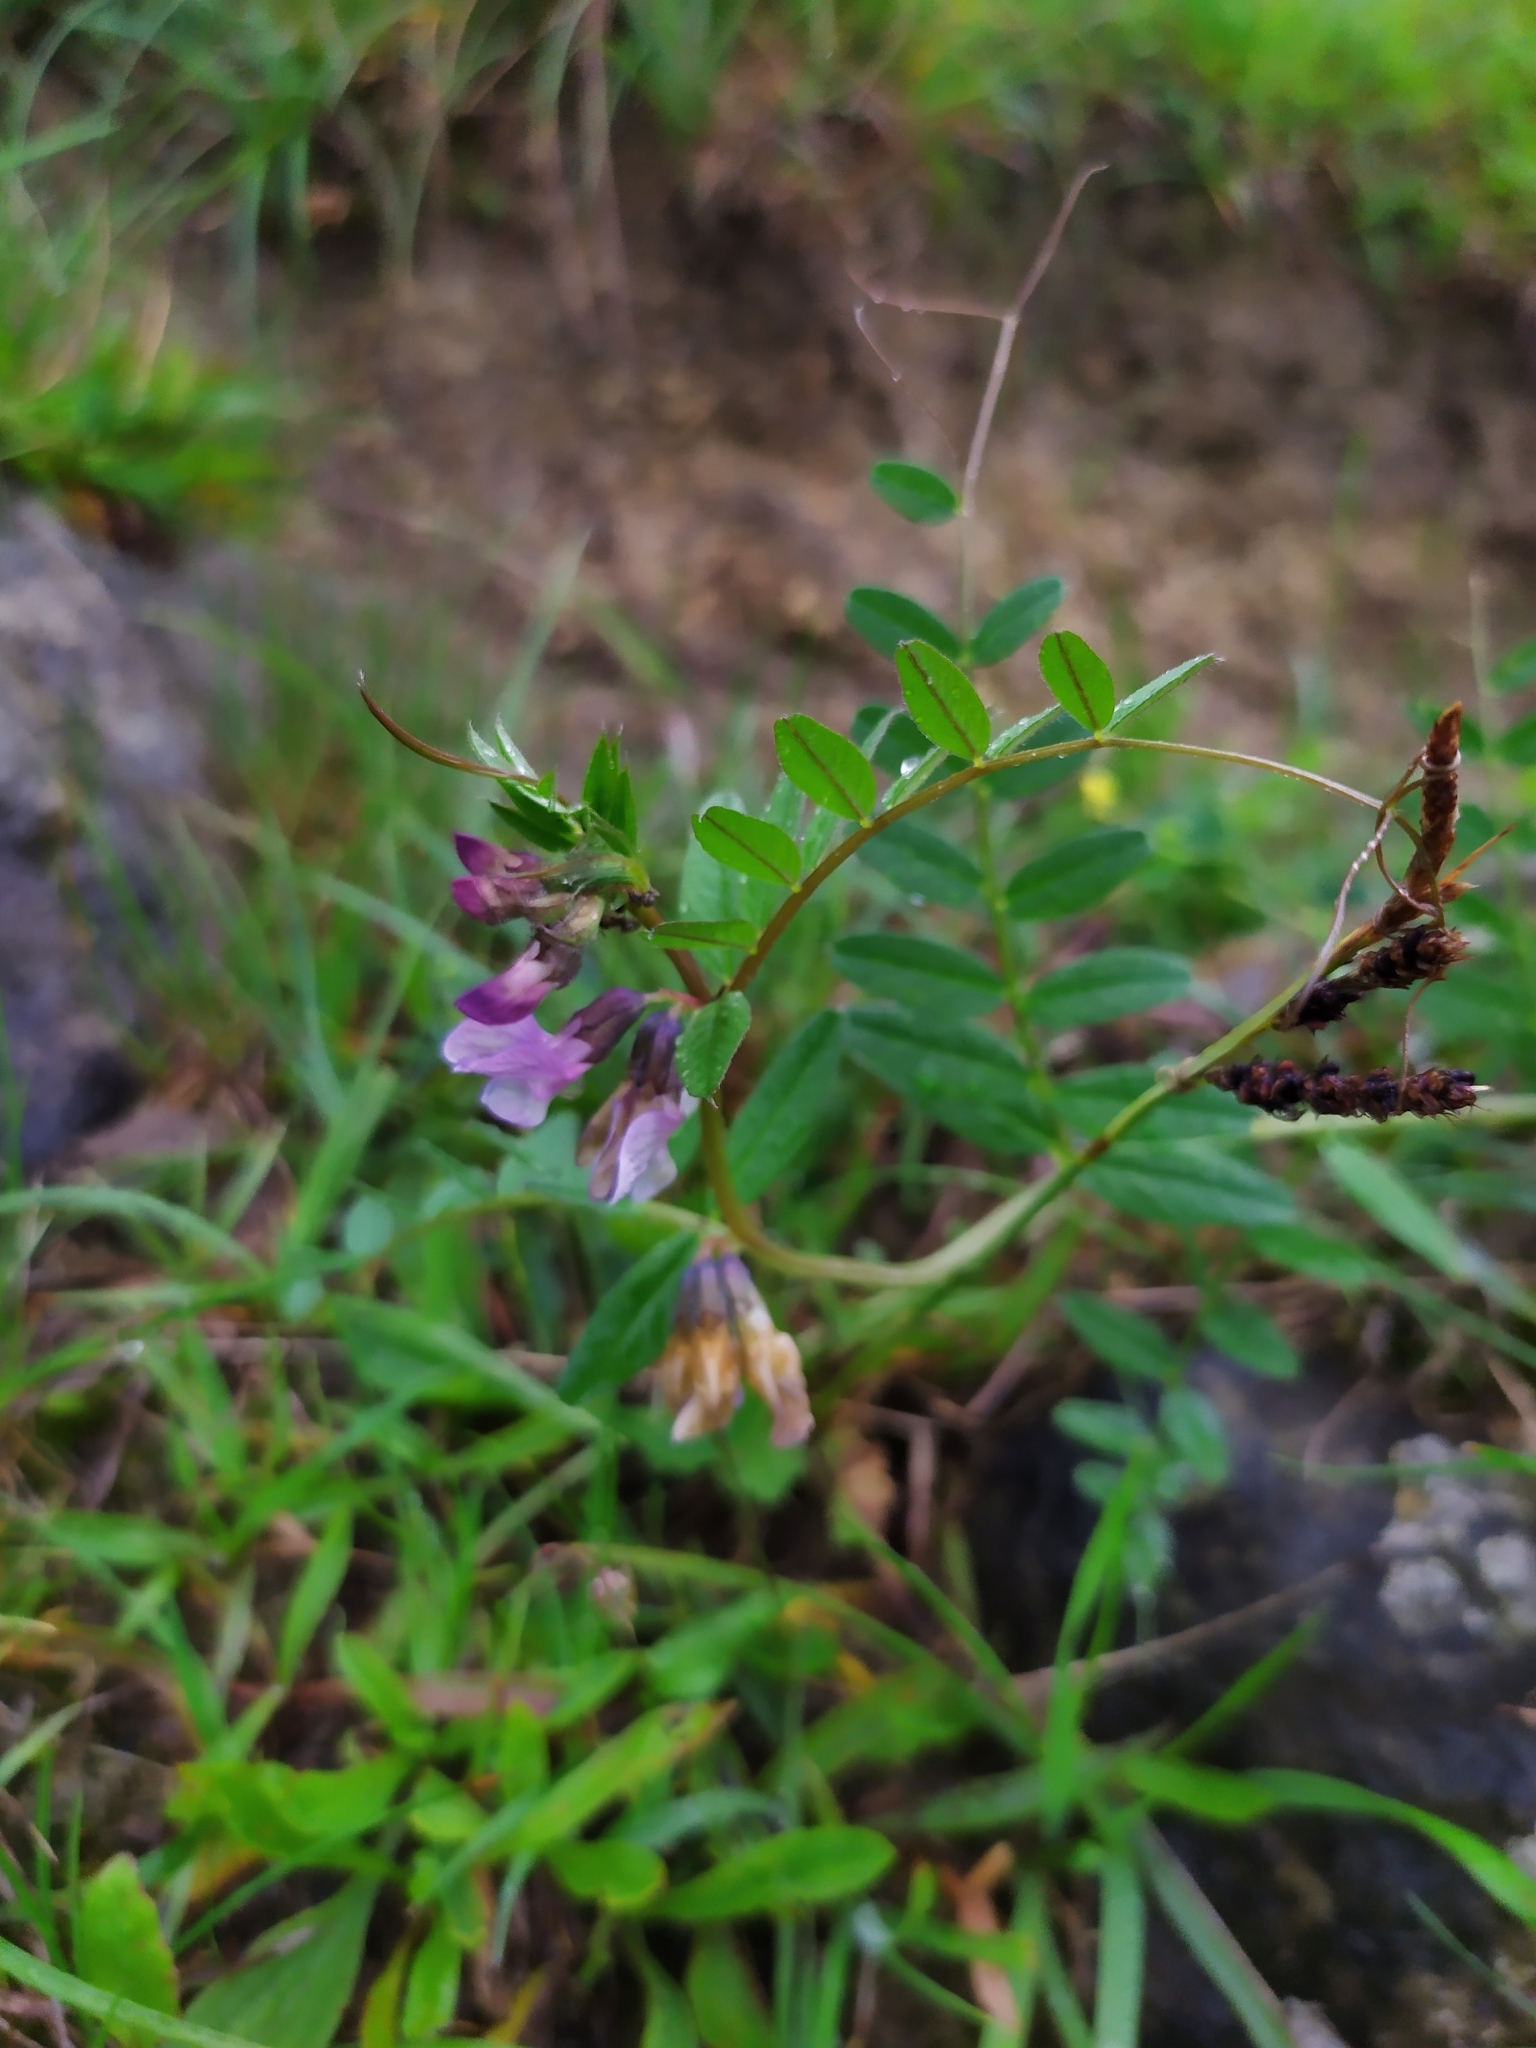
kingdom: Plantae
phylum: Tracheophyta
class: Magnoliopsida
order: Fabales
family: Fabaceae
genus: Vicia
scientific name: Vicia sepium
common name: Bush vetch
